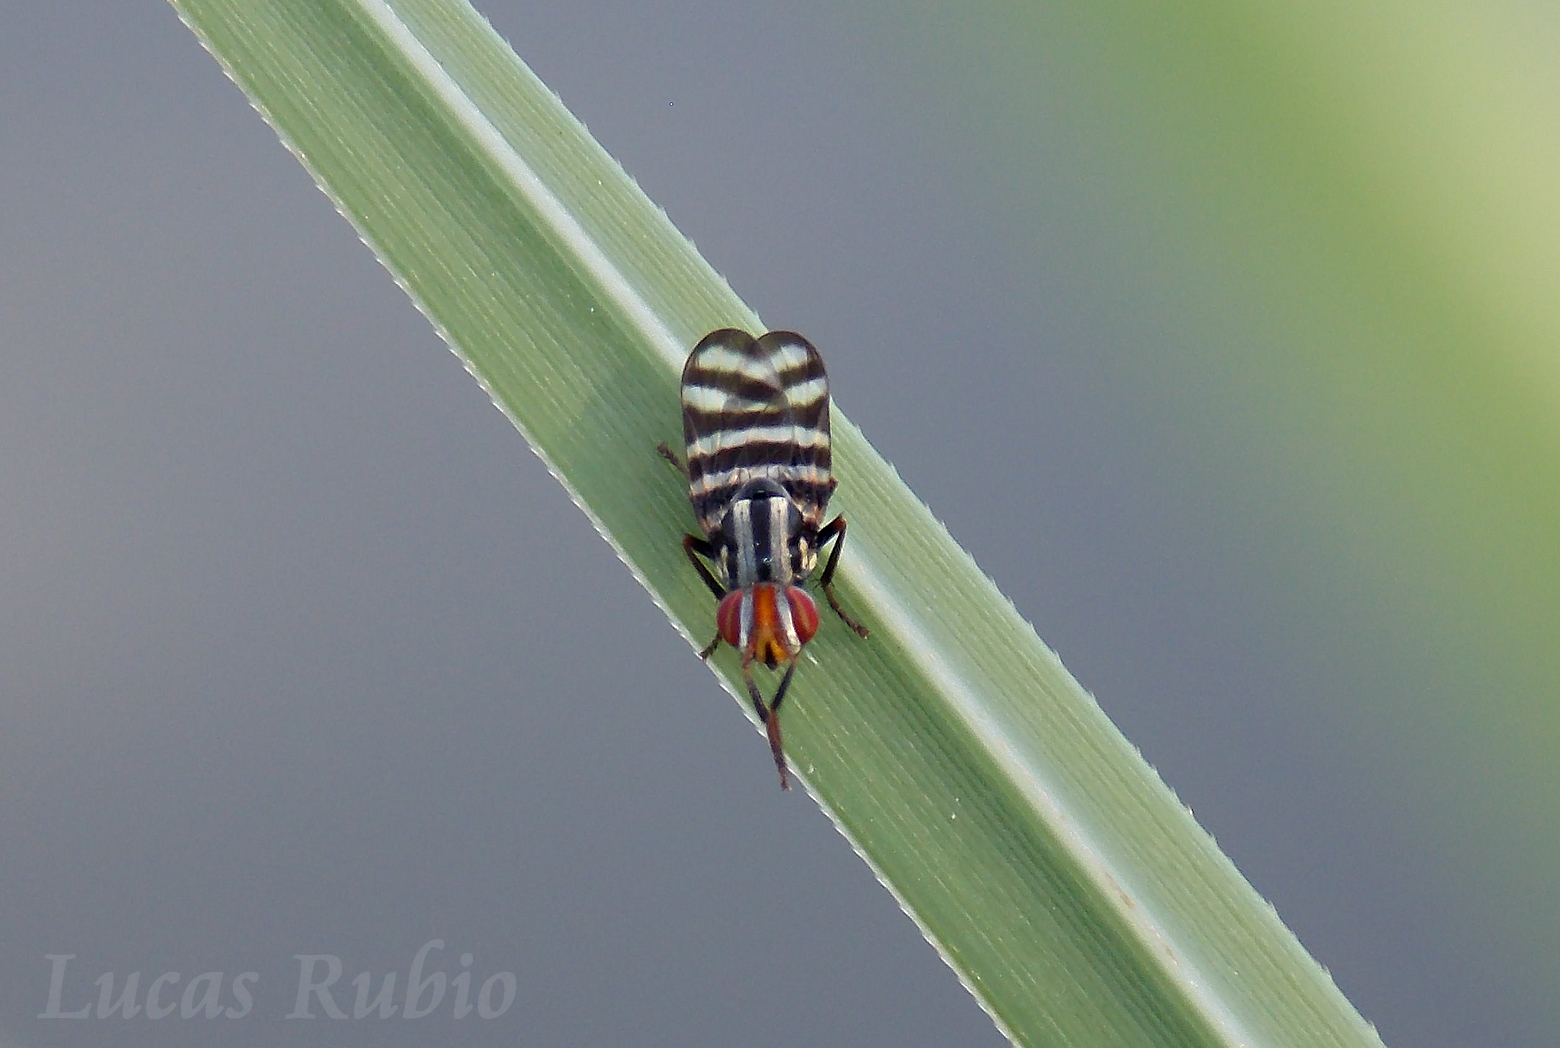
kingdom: Animalia
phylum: Arthropoda
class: Insecta
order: Diptera
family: Ulidiidae
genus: Pterotaenia
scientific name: Pterotaenia fasciata
